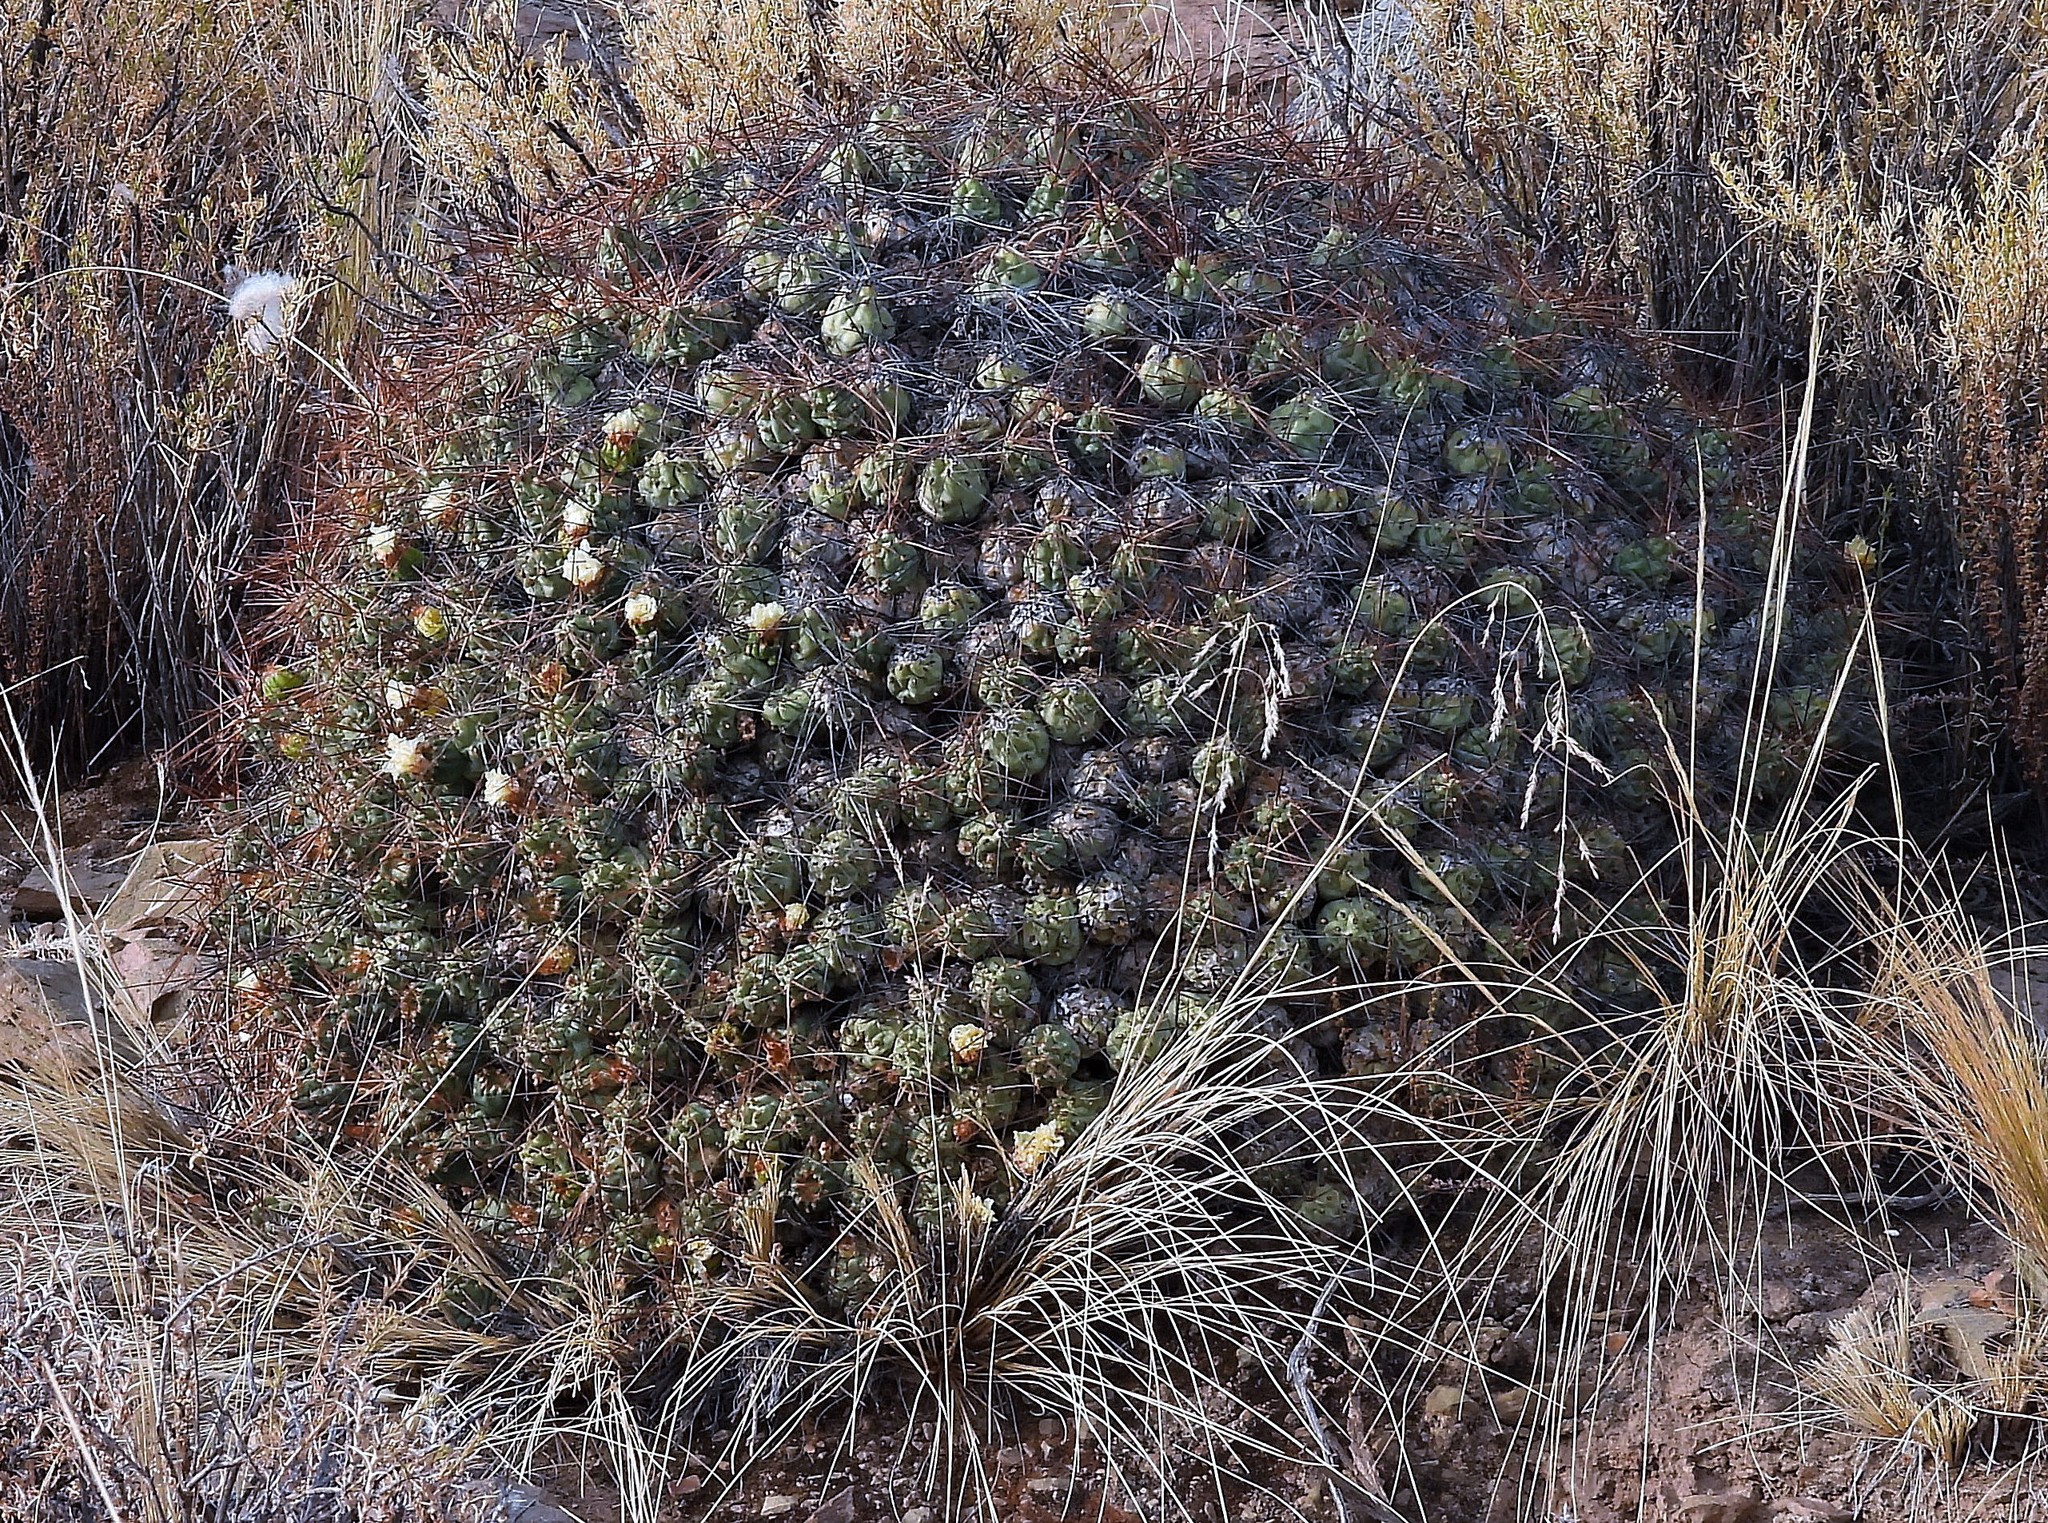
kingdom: Plantae
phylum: Tracheophyta
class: Magnoliopsida
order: Caryophyllales
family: Cactaceae
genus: Cumulopuntia
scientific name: Cumulopuntia boliviana
